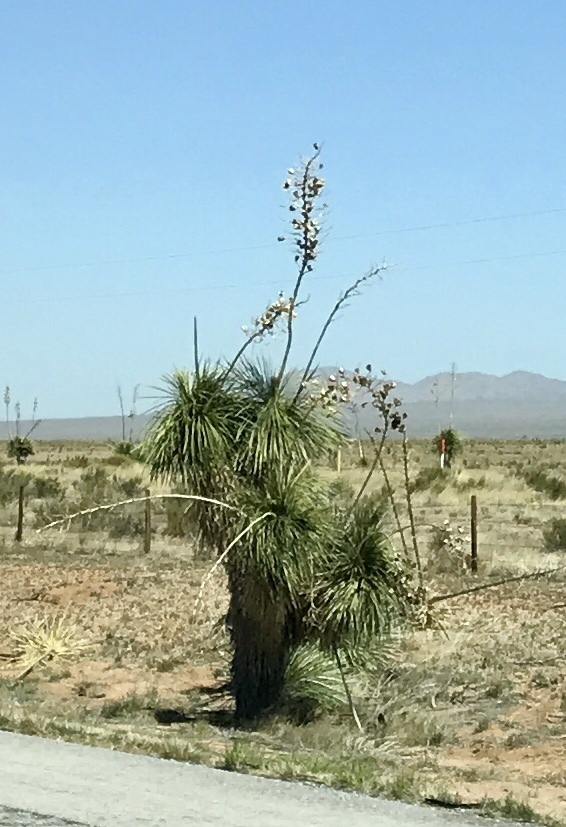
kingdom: Plantae
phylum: Tracheophyta
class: Liliopsida
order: Asparagales
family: Asparagaceae
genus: Yucca
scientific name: Yucca elata
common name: Palmella
